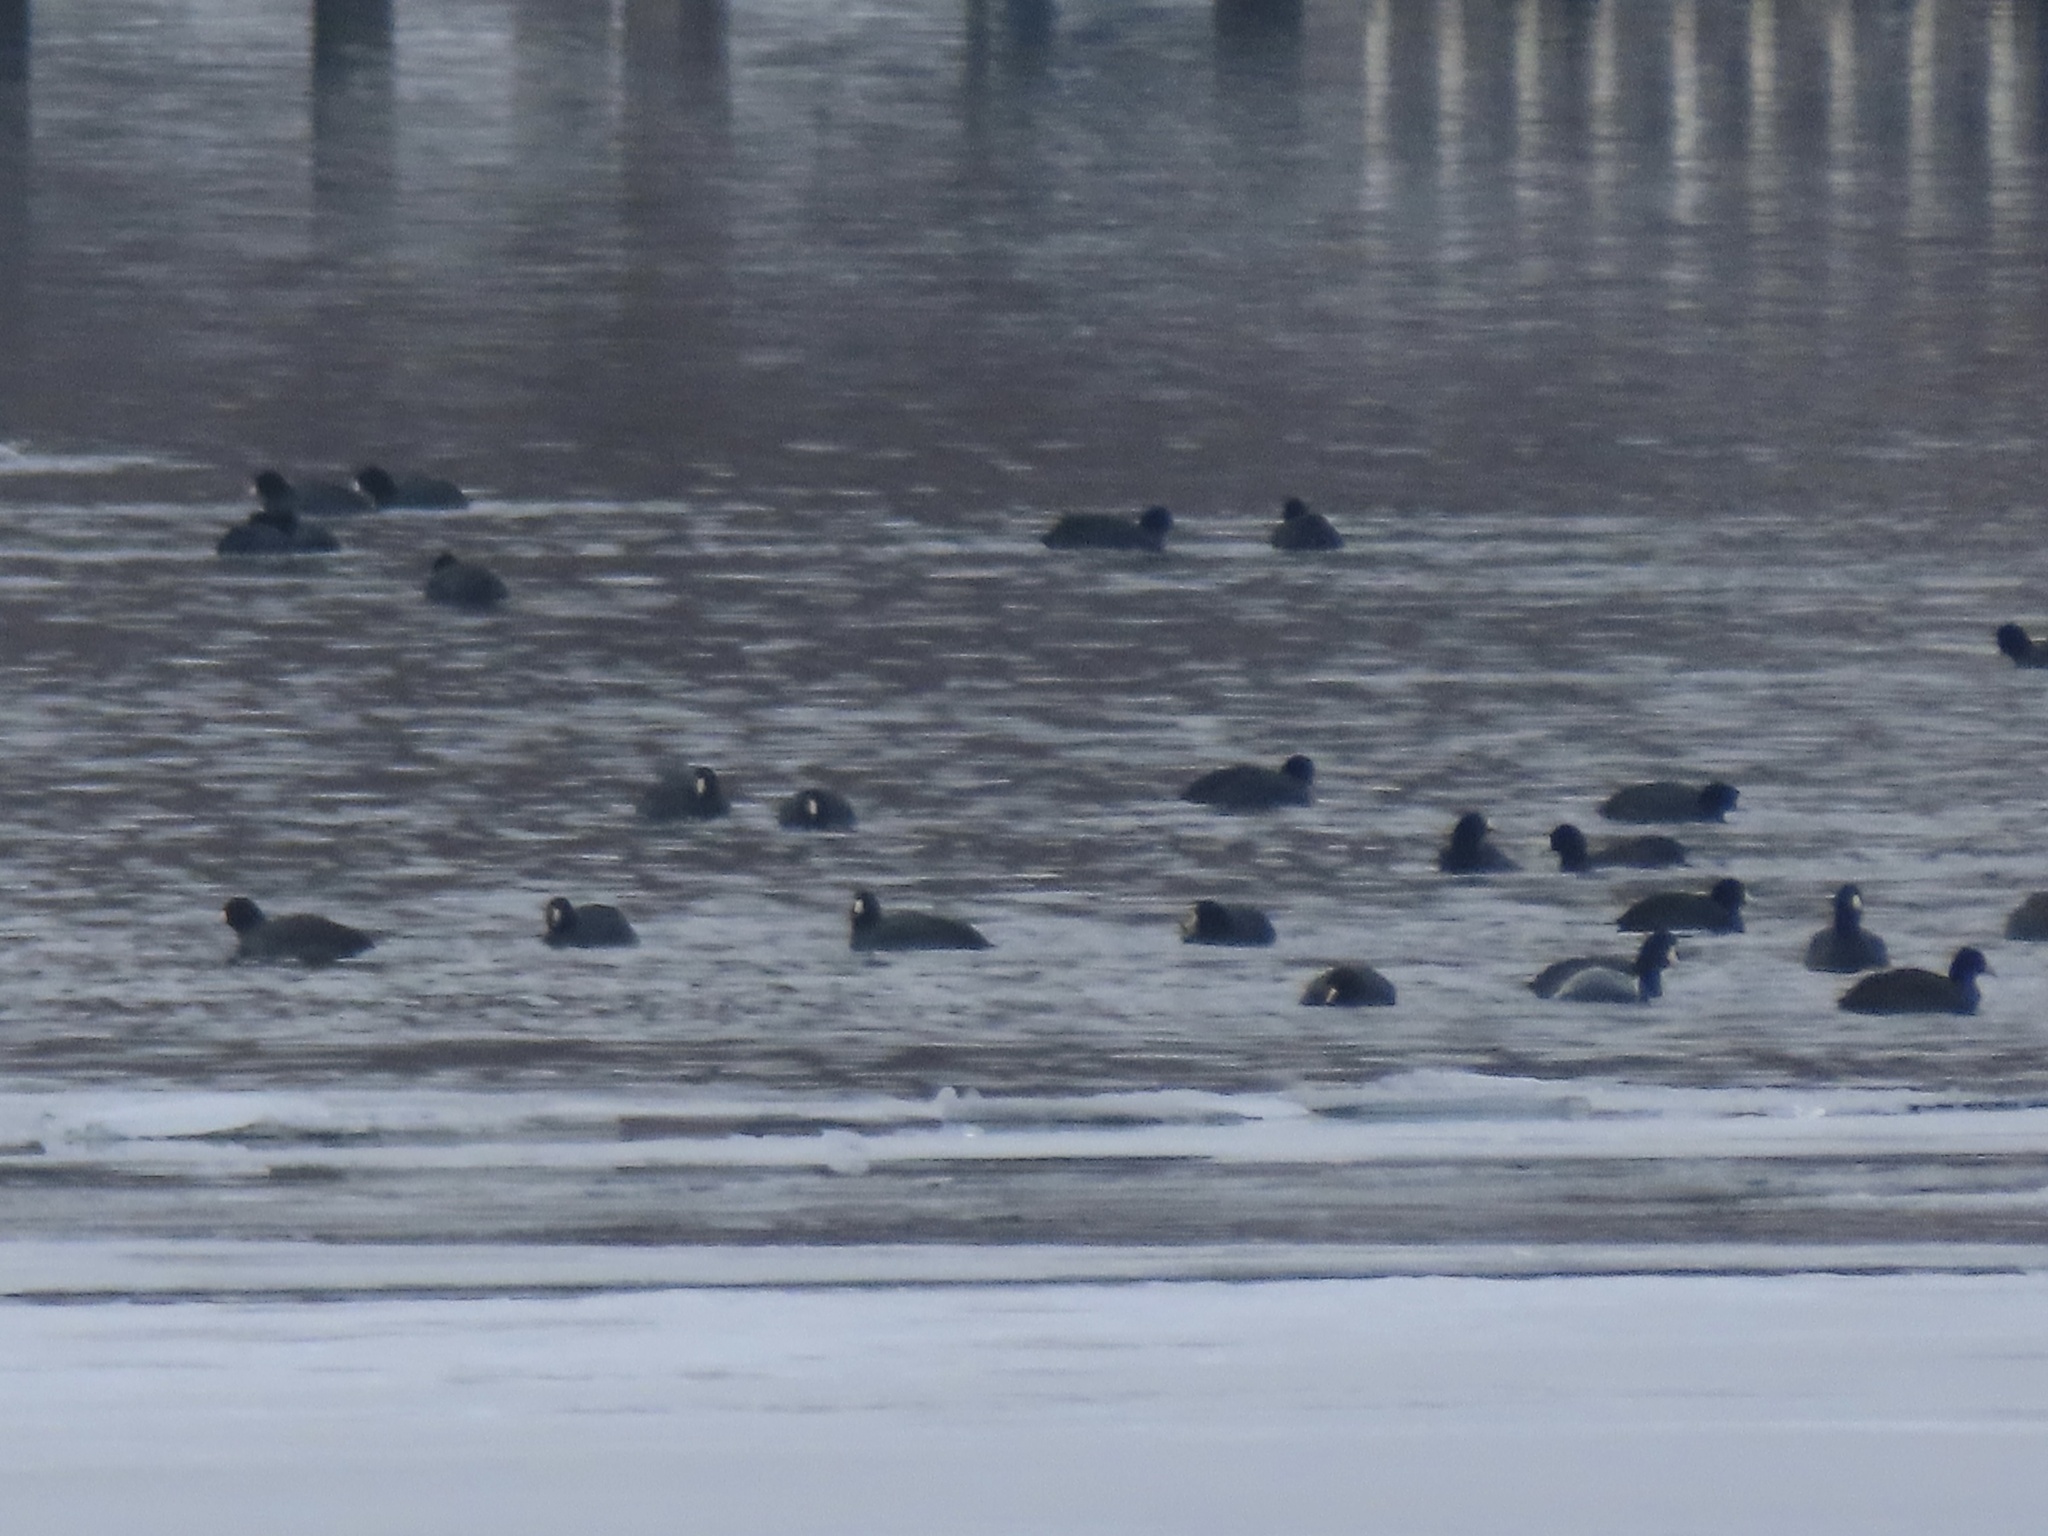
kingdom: Animalia
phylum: Chordata
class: Aves
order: Gruiformes
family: Rallidae
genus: Fulica
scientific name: Fulica americana
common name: American coot
